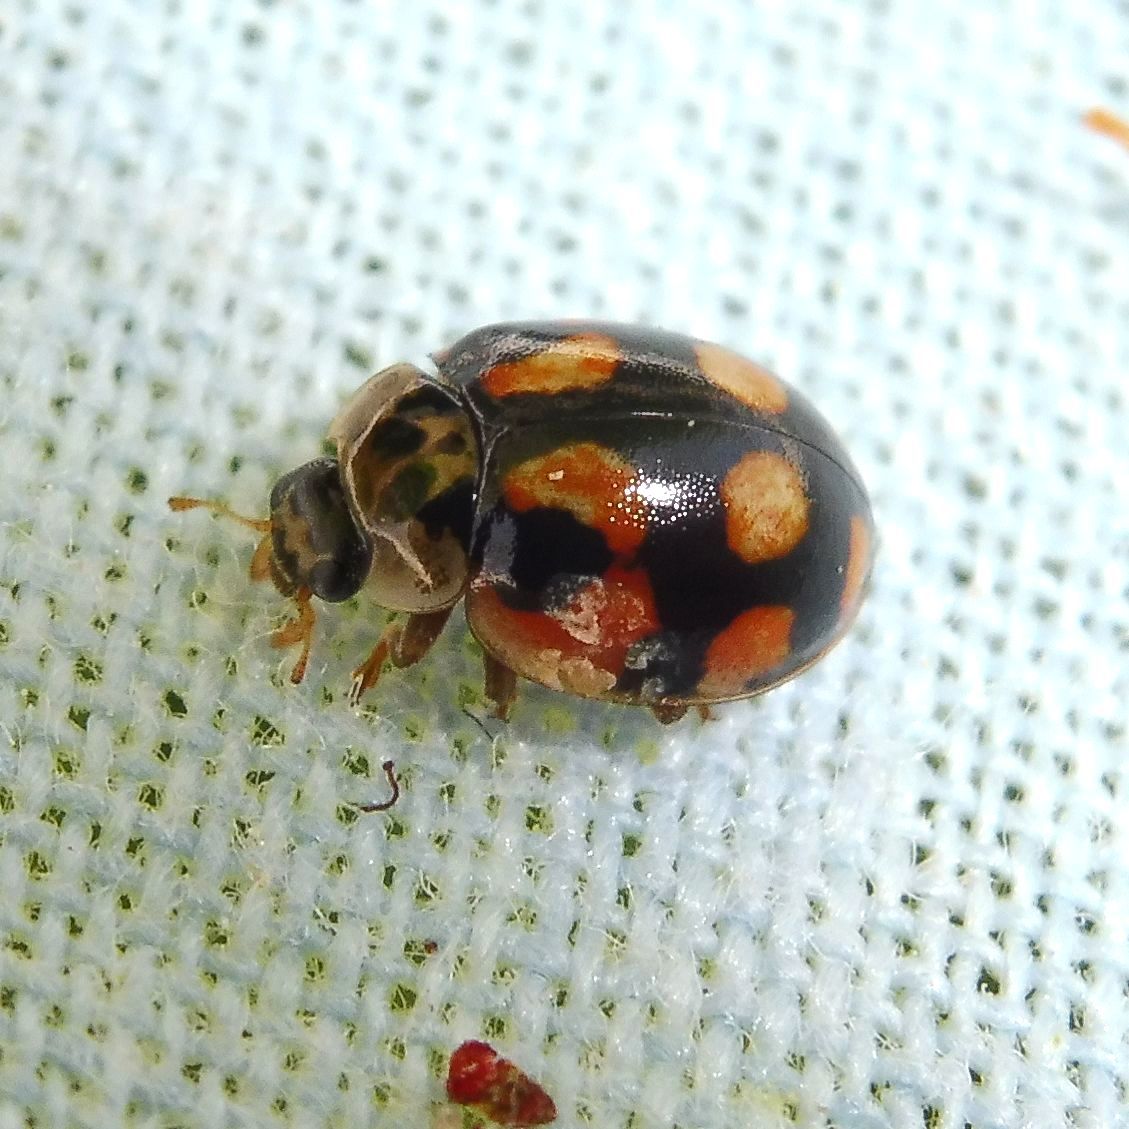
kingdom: Animalia
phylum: Arthropoda
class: Insecta
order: Coleoptera
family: Coccinellidae
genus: Adalia
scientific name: Adalia decempunctata
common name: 10-spot ladybird
